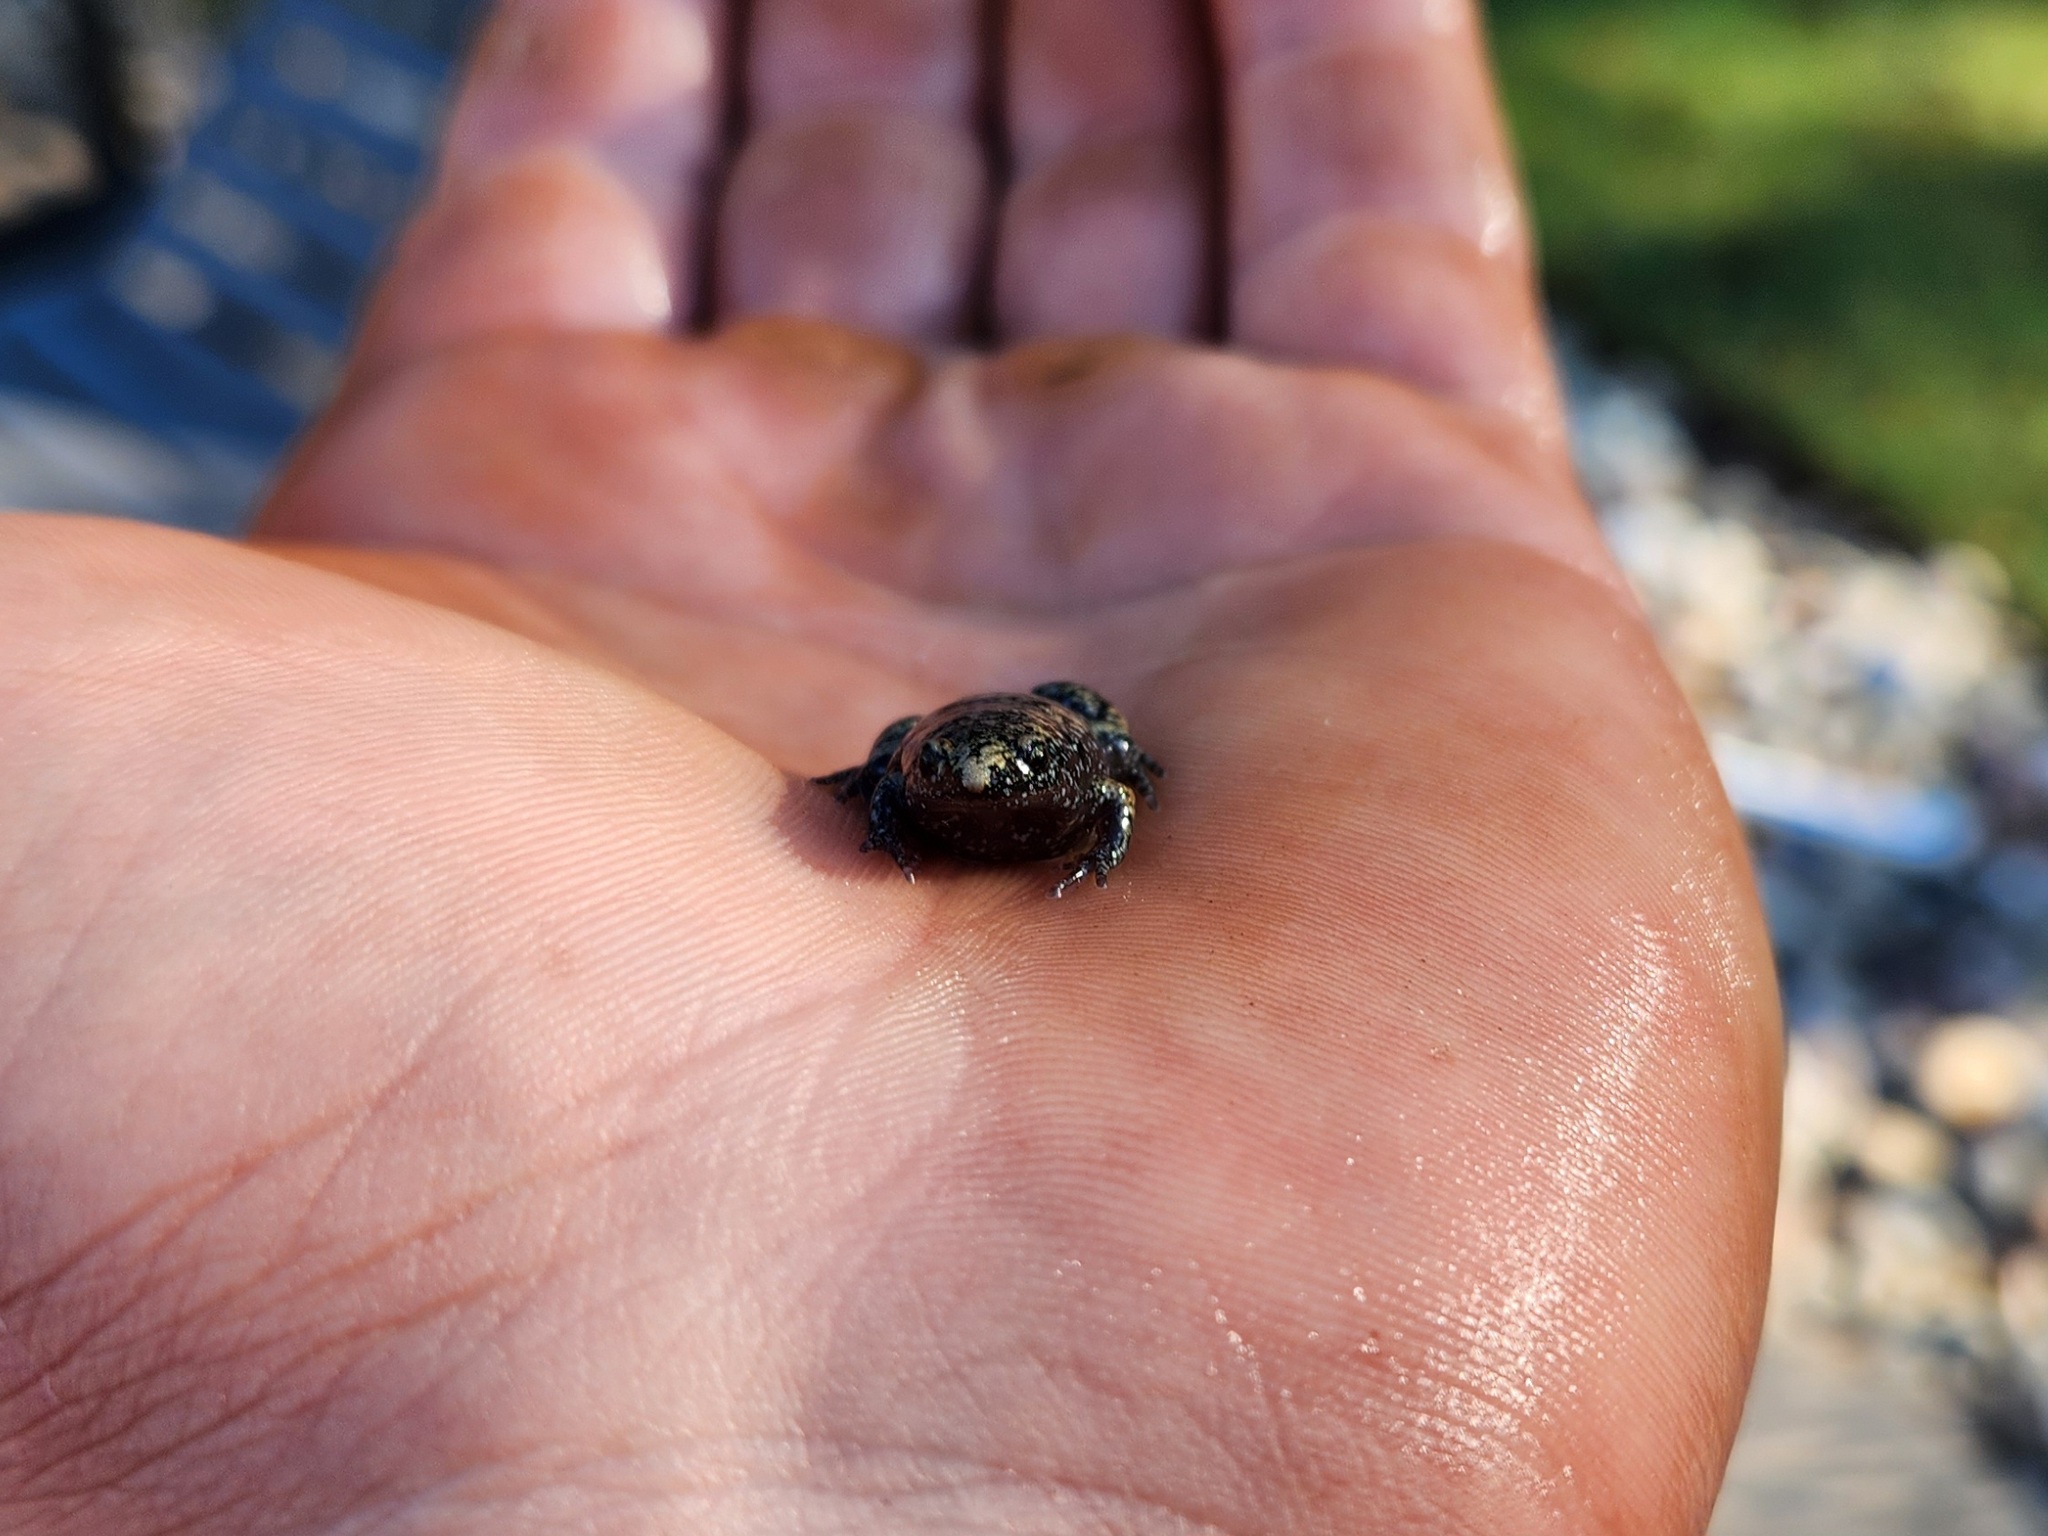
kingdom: Animalia
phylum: Chordata
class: Amphibia
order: Anura
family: Microhylidae
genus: Gastrophryne
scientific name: Gastrophryne carolinensis
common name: Eastern narrowmouth toad
